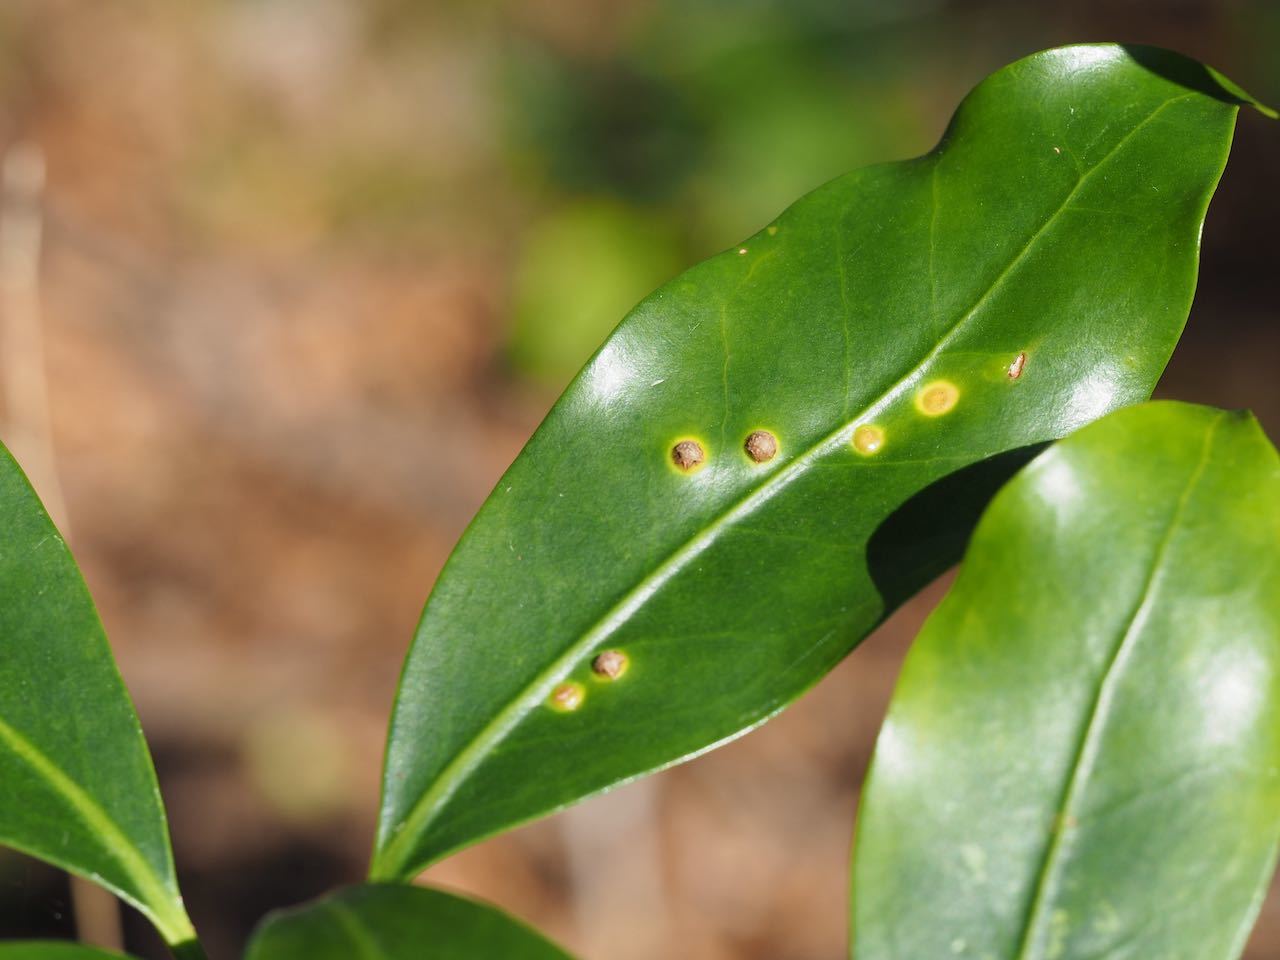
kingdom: Animalia
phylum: Arthropoda
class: Insecta
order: Diptera
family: Cecidomyiidae
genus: Pseudasphondylia
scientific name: Pseudasphondylia yukawai
